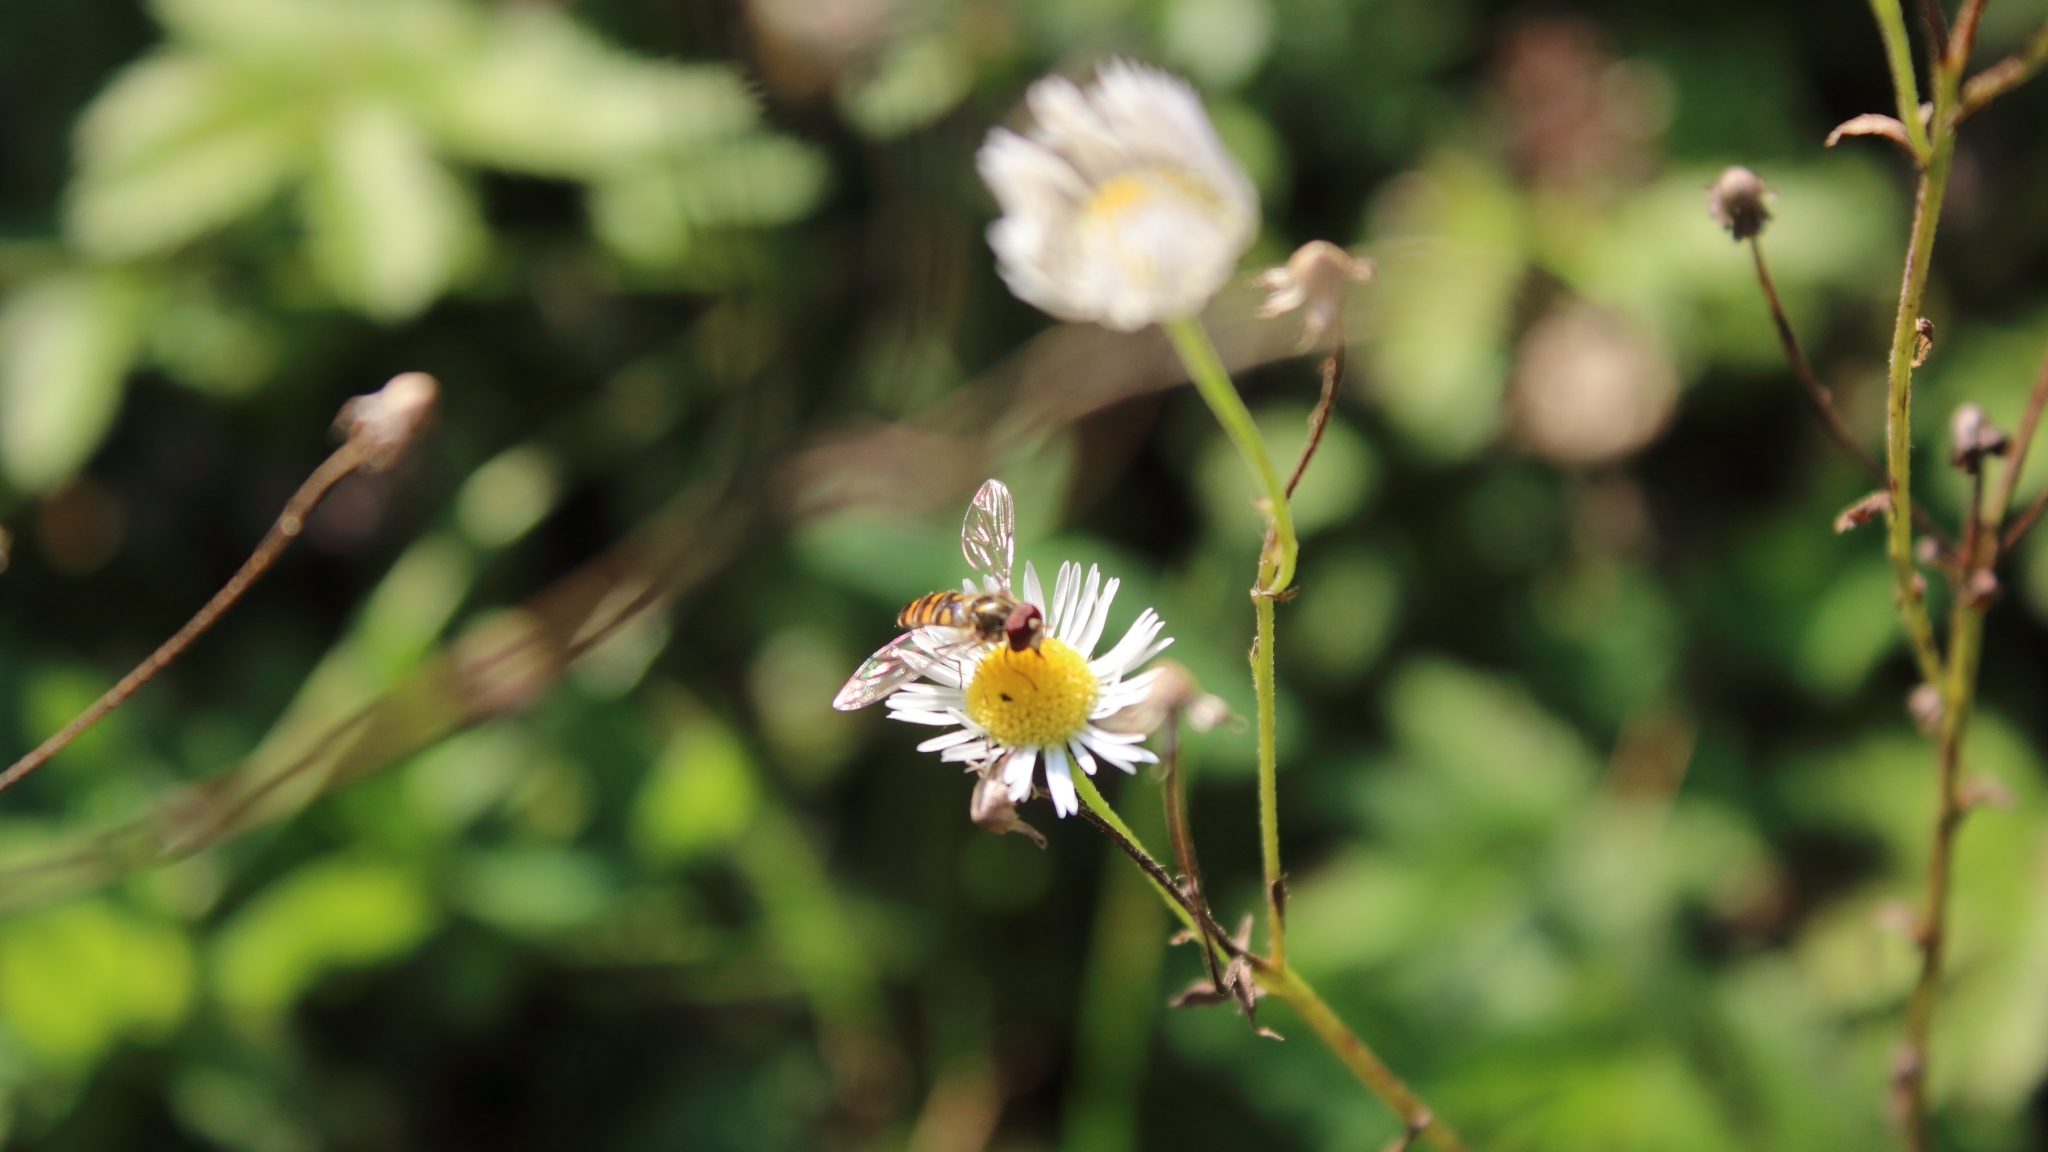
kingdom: Animalia
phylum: Arthropoda
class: Insecta
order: Diptera
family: Syrphidae
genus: Episyrphus
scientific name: Episyrphus balteatus
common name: Marmalade hoverfly
